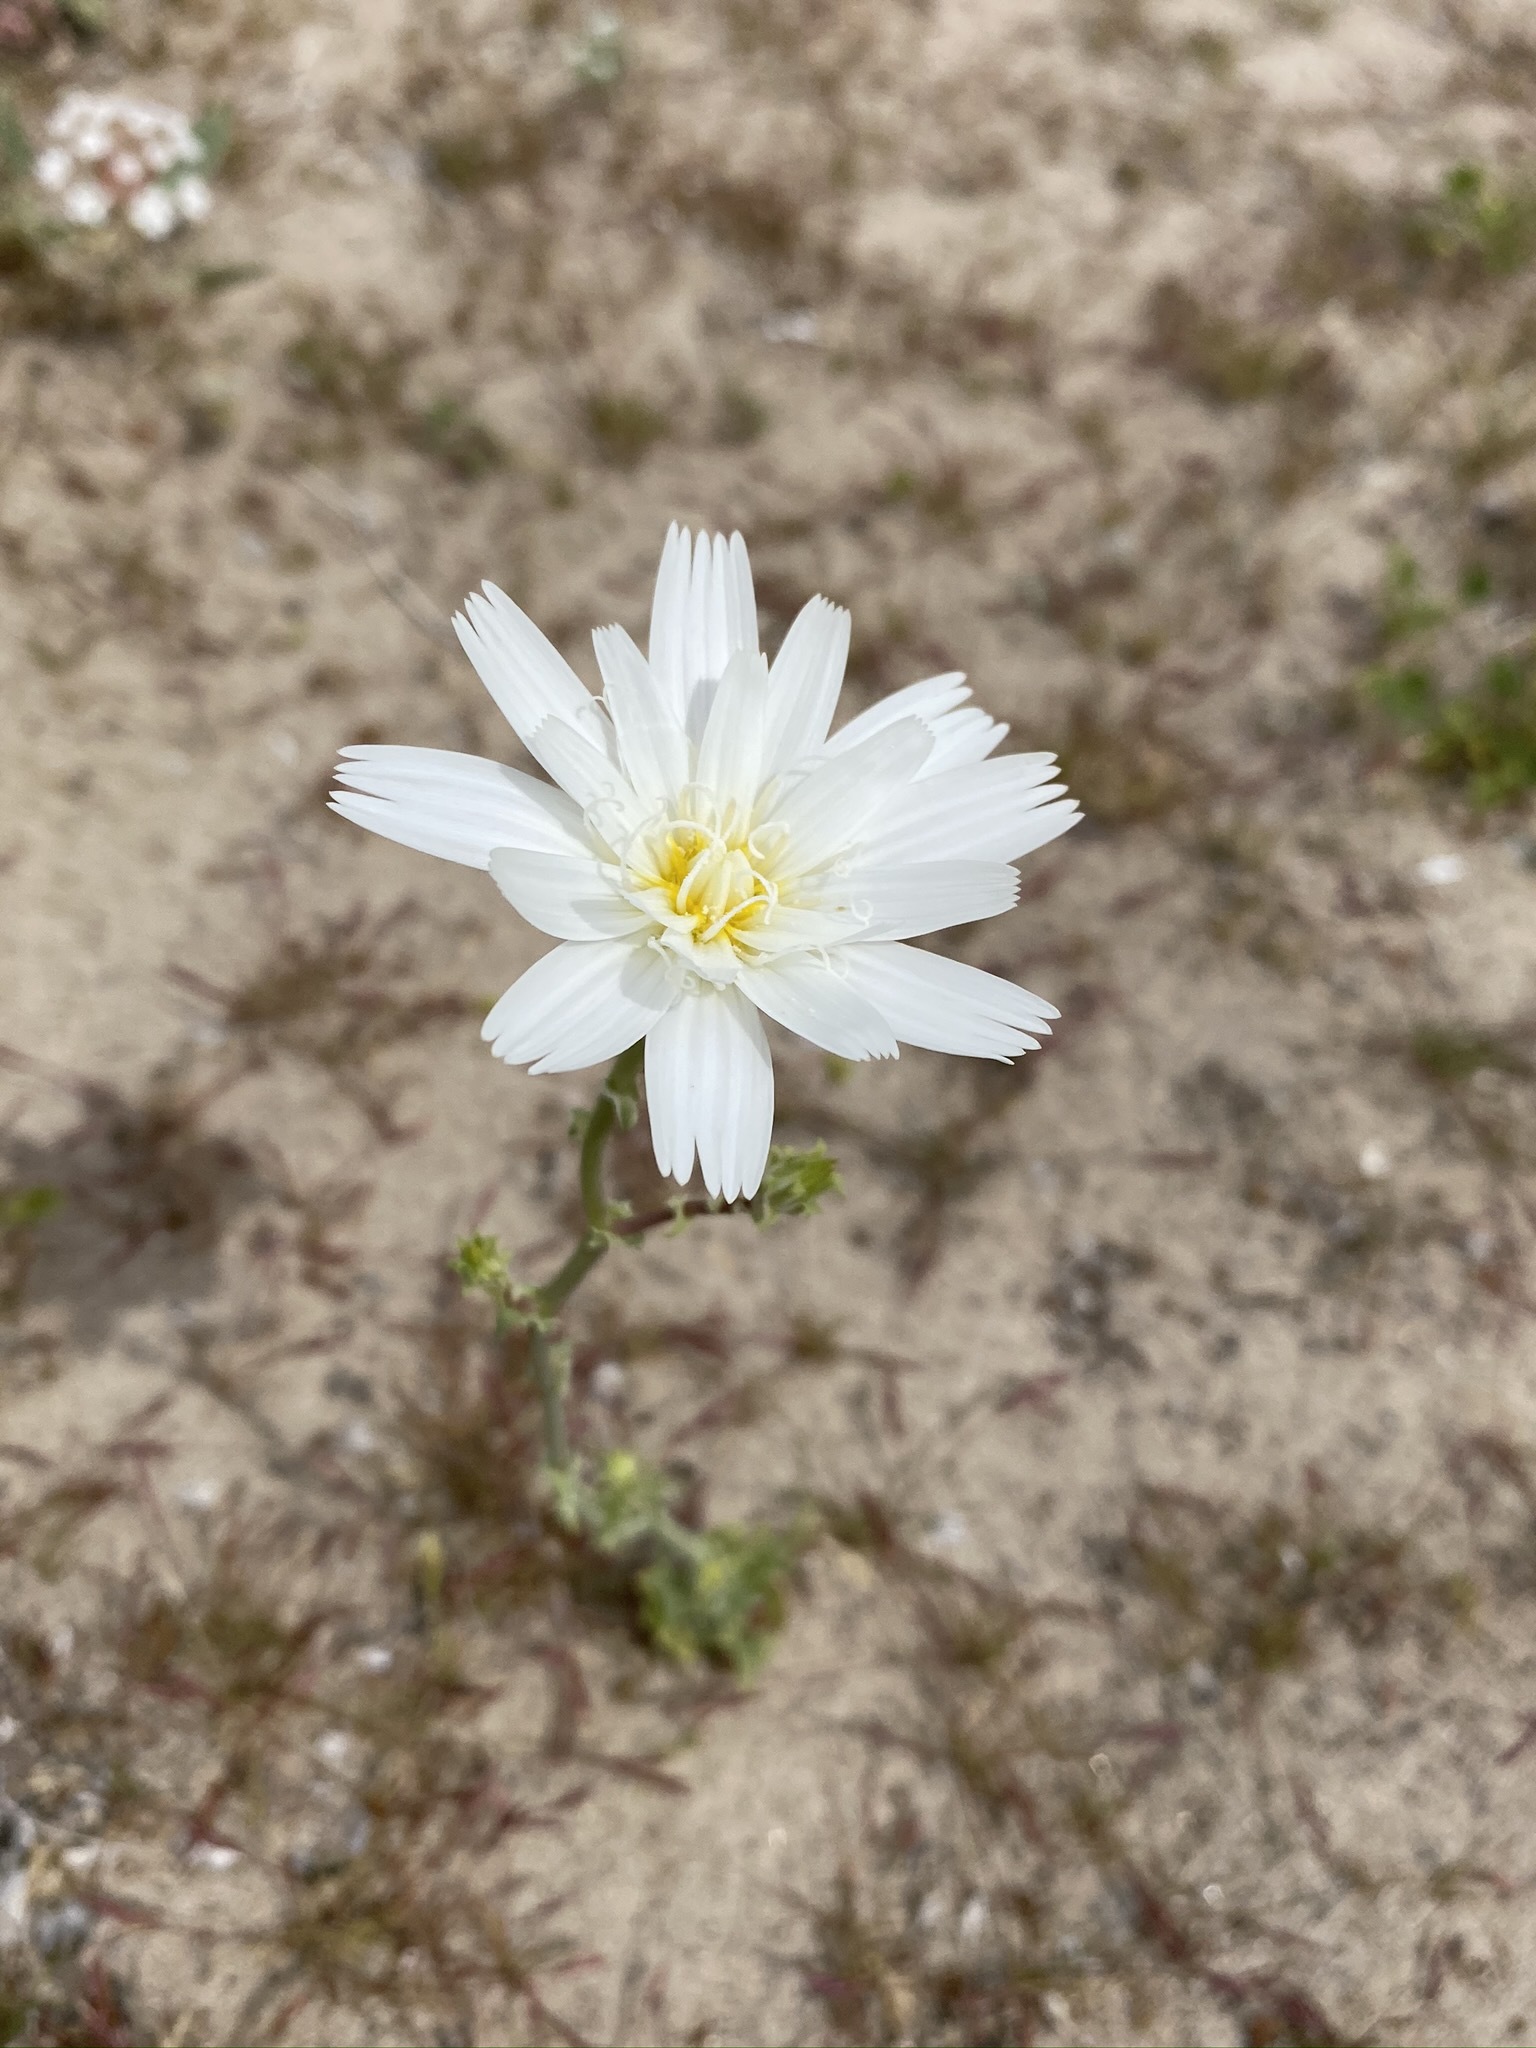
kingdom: Plantae
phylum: Tracheophyta
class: Magnoliopsida
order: Asterales
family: Asteraceae
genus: Rafinesquia
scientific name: Rafinesquia neomexicana
